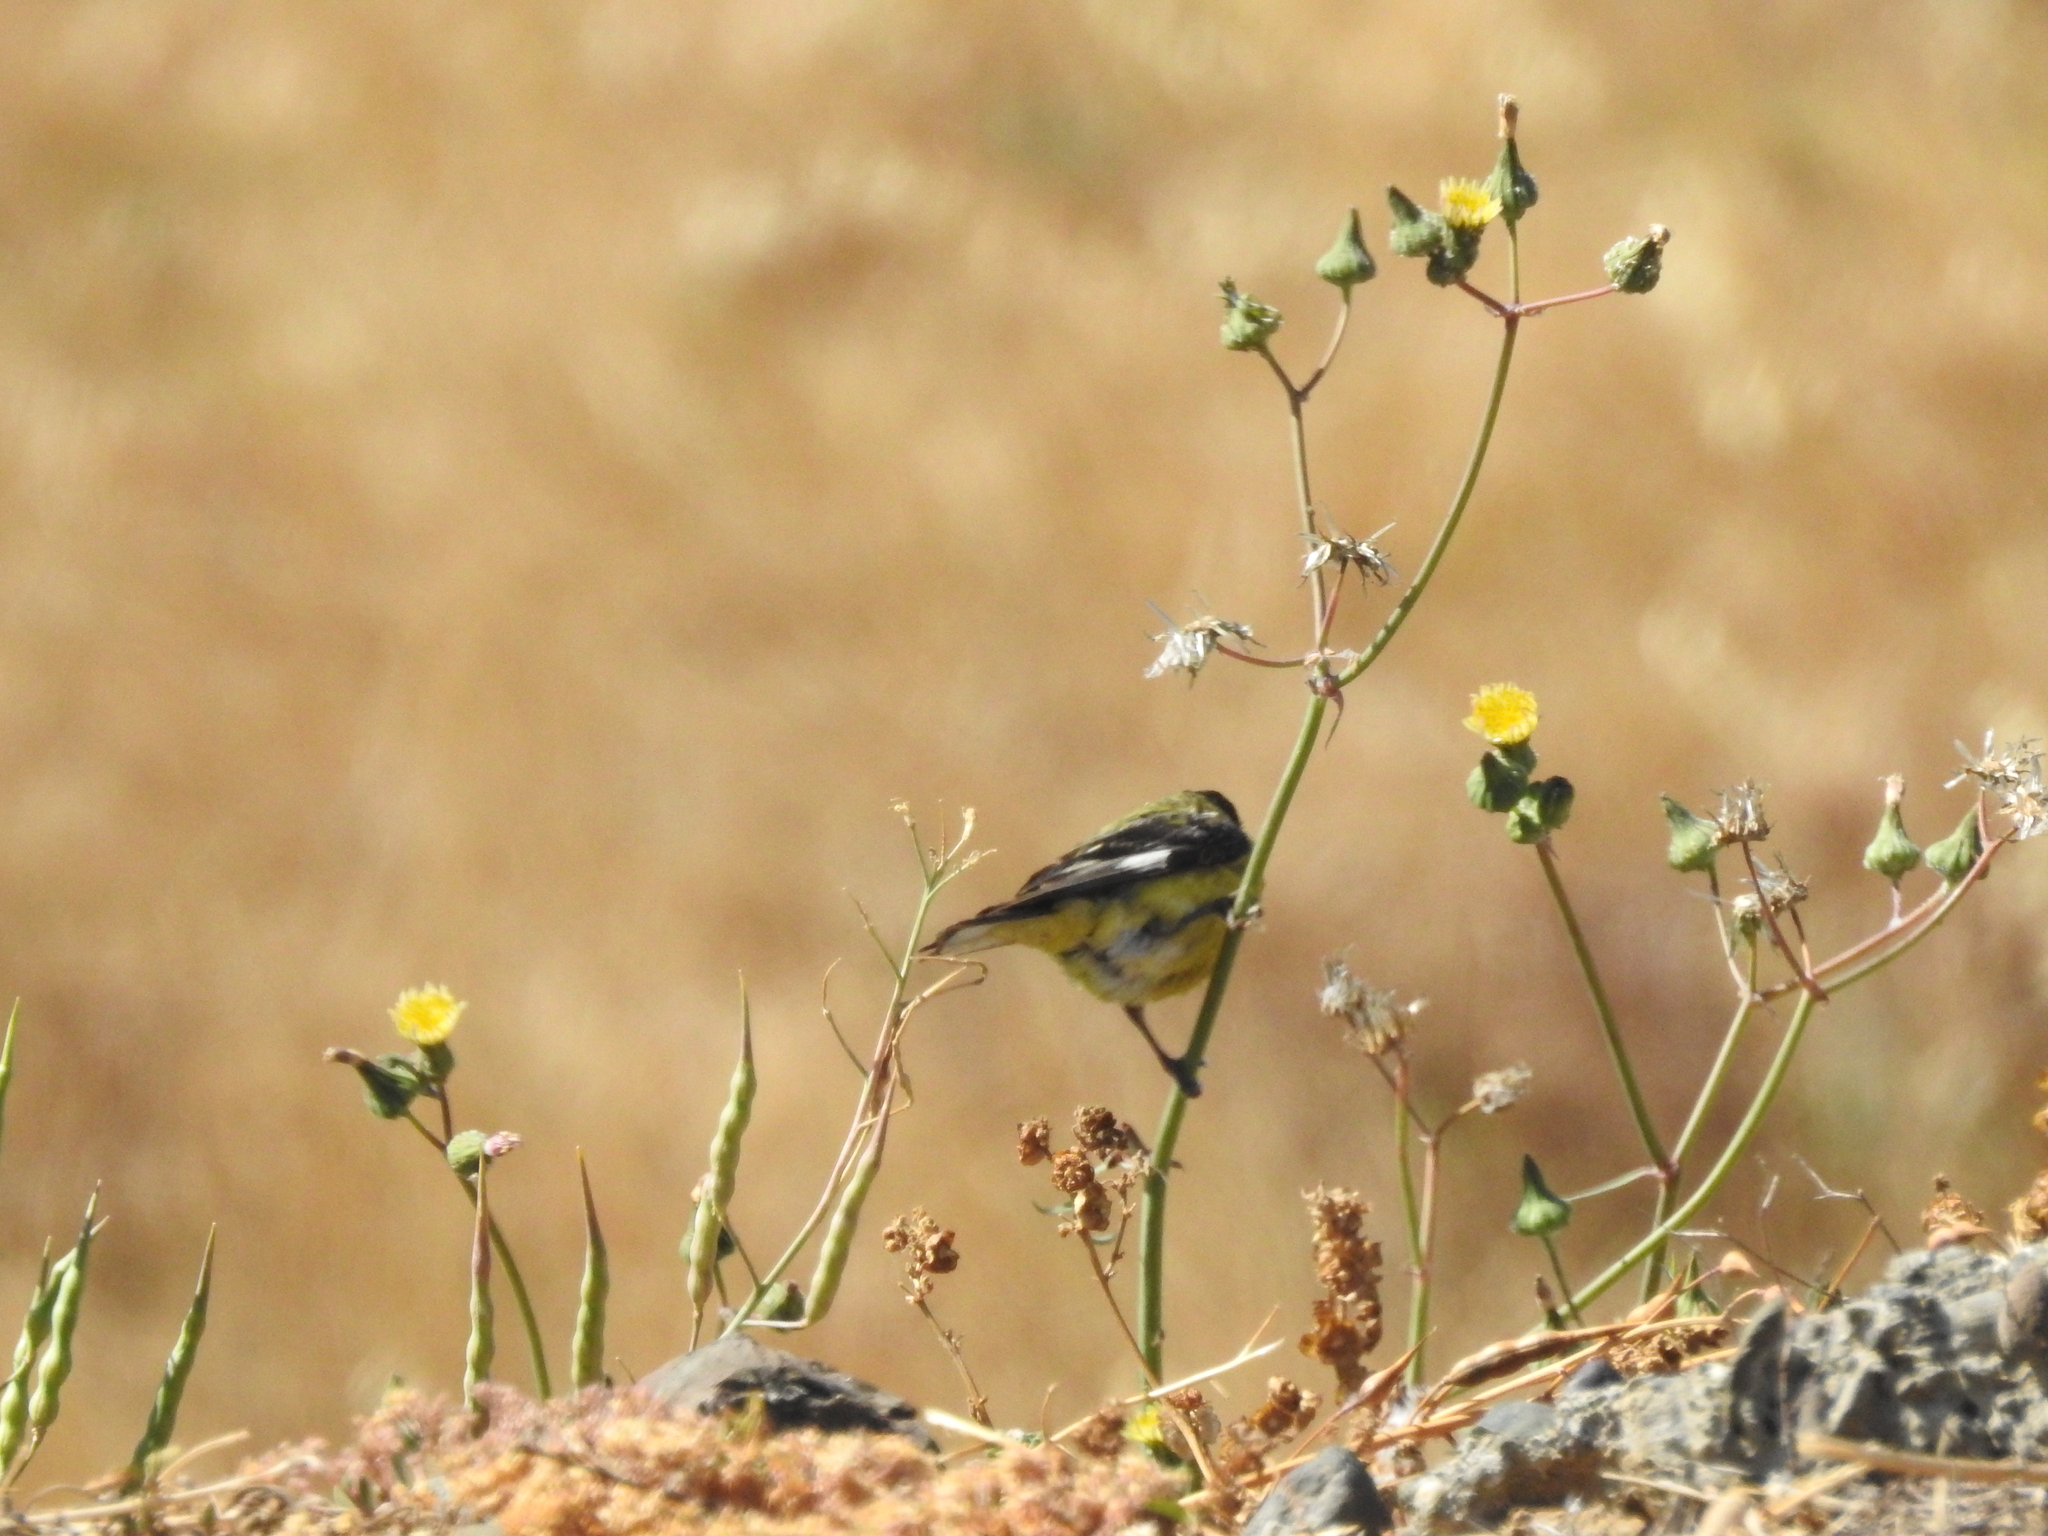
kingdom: Animalia
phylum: Chordata
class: Aves
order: Passeriformes
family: Fringillidae
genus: Spinus
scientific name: Spinus psaltria
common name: Lesser goldfinch
